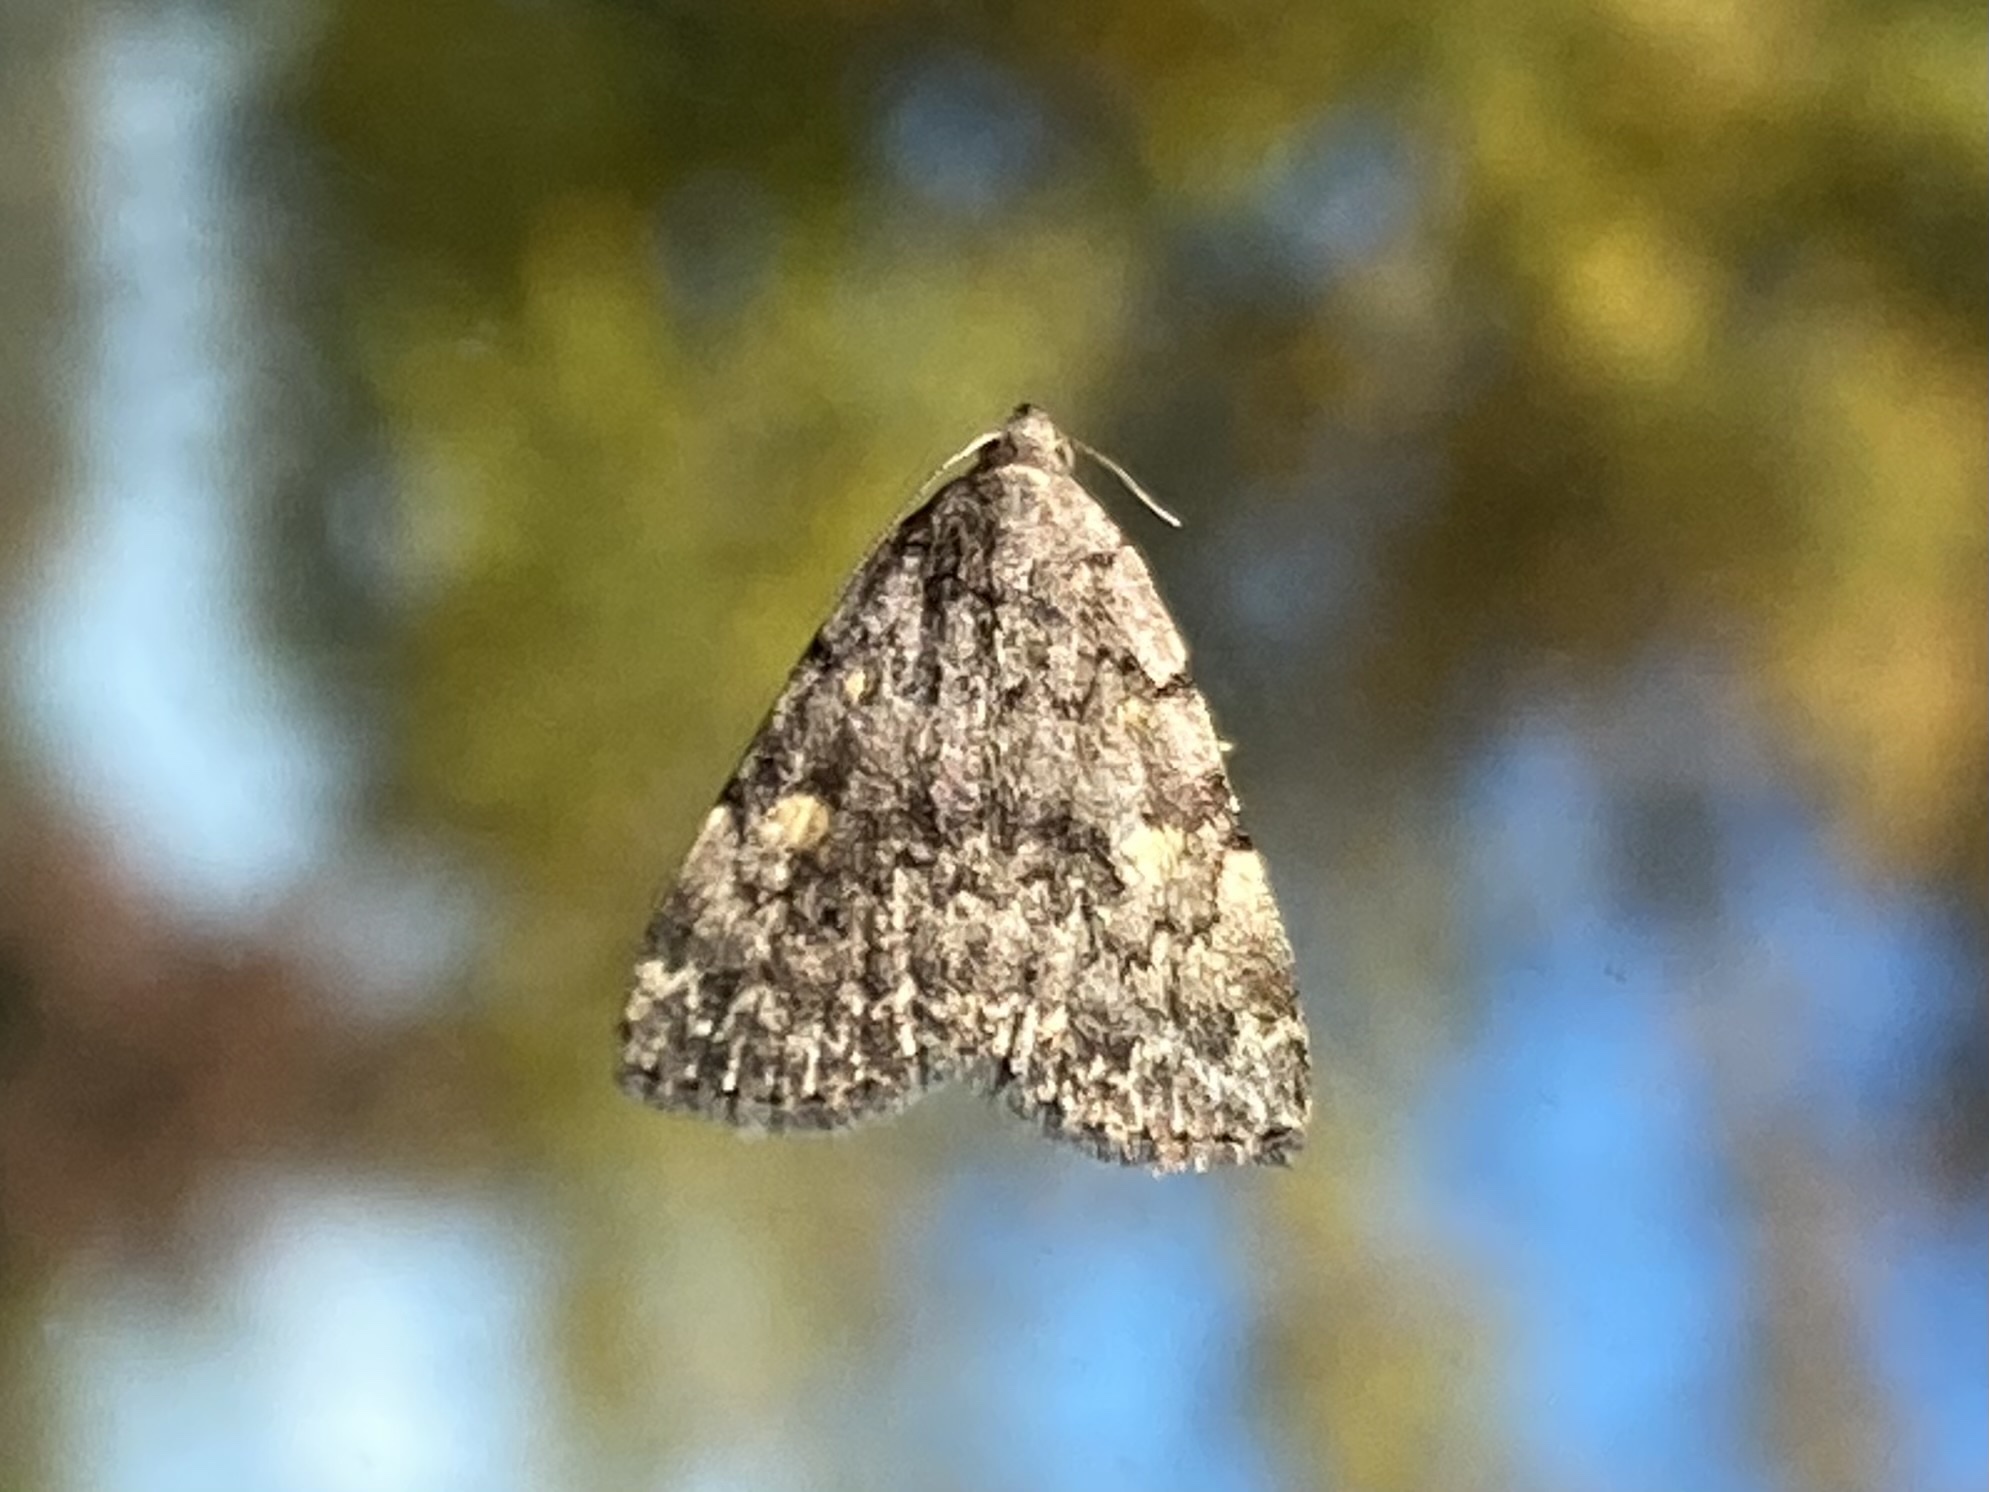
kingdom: Animalia
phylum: Arthropoda
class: Insecta
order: Lepidoptera
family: Erebidae
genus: Idia
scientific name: Idia aemula
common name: Common idia moth
